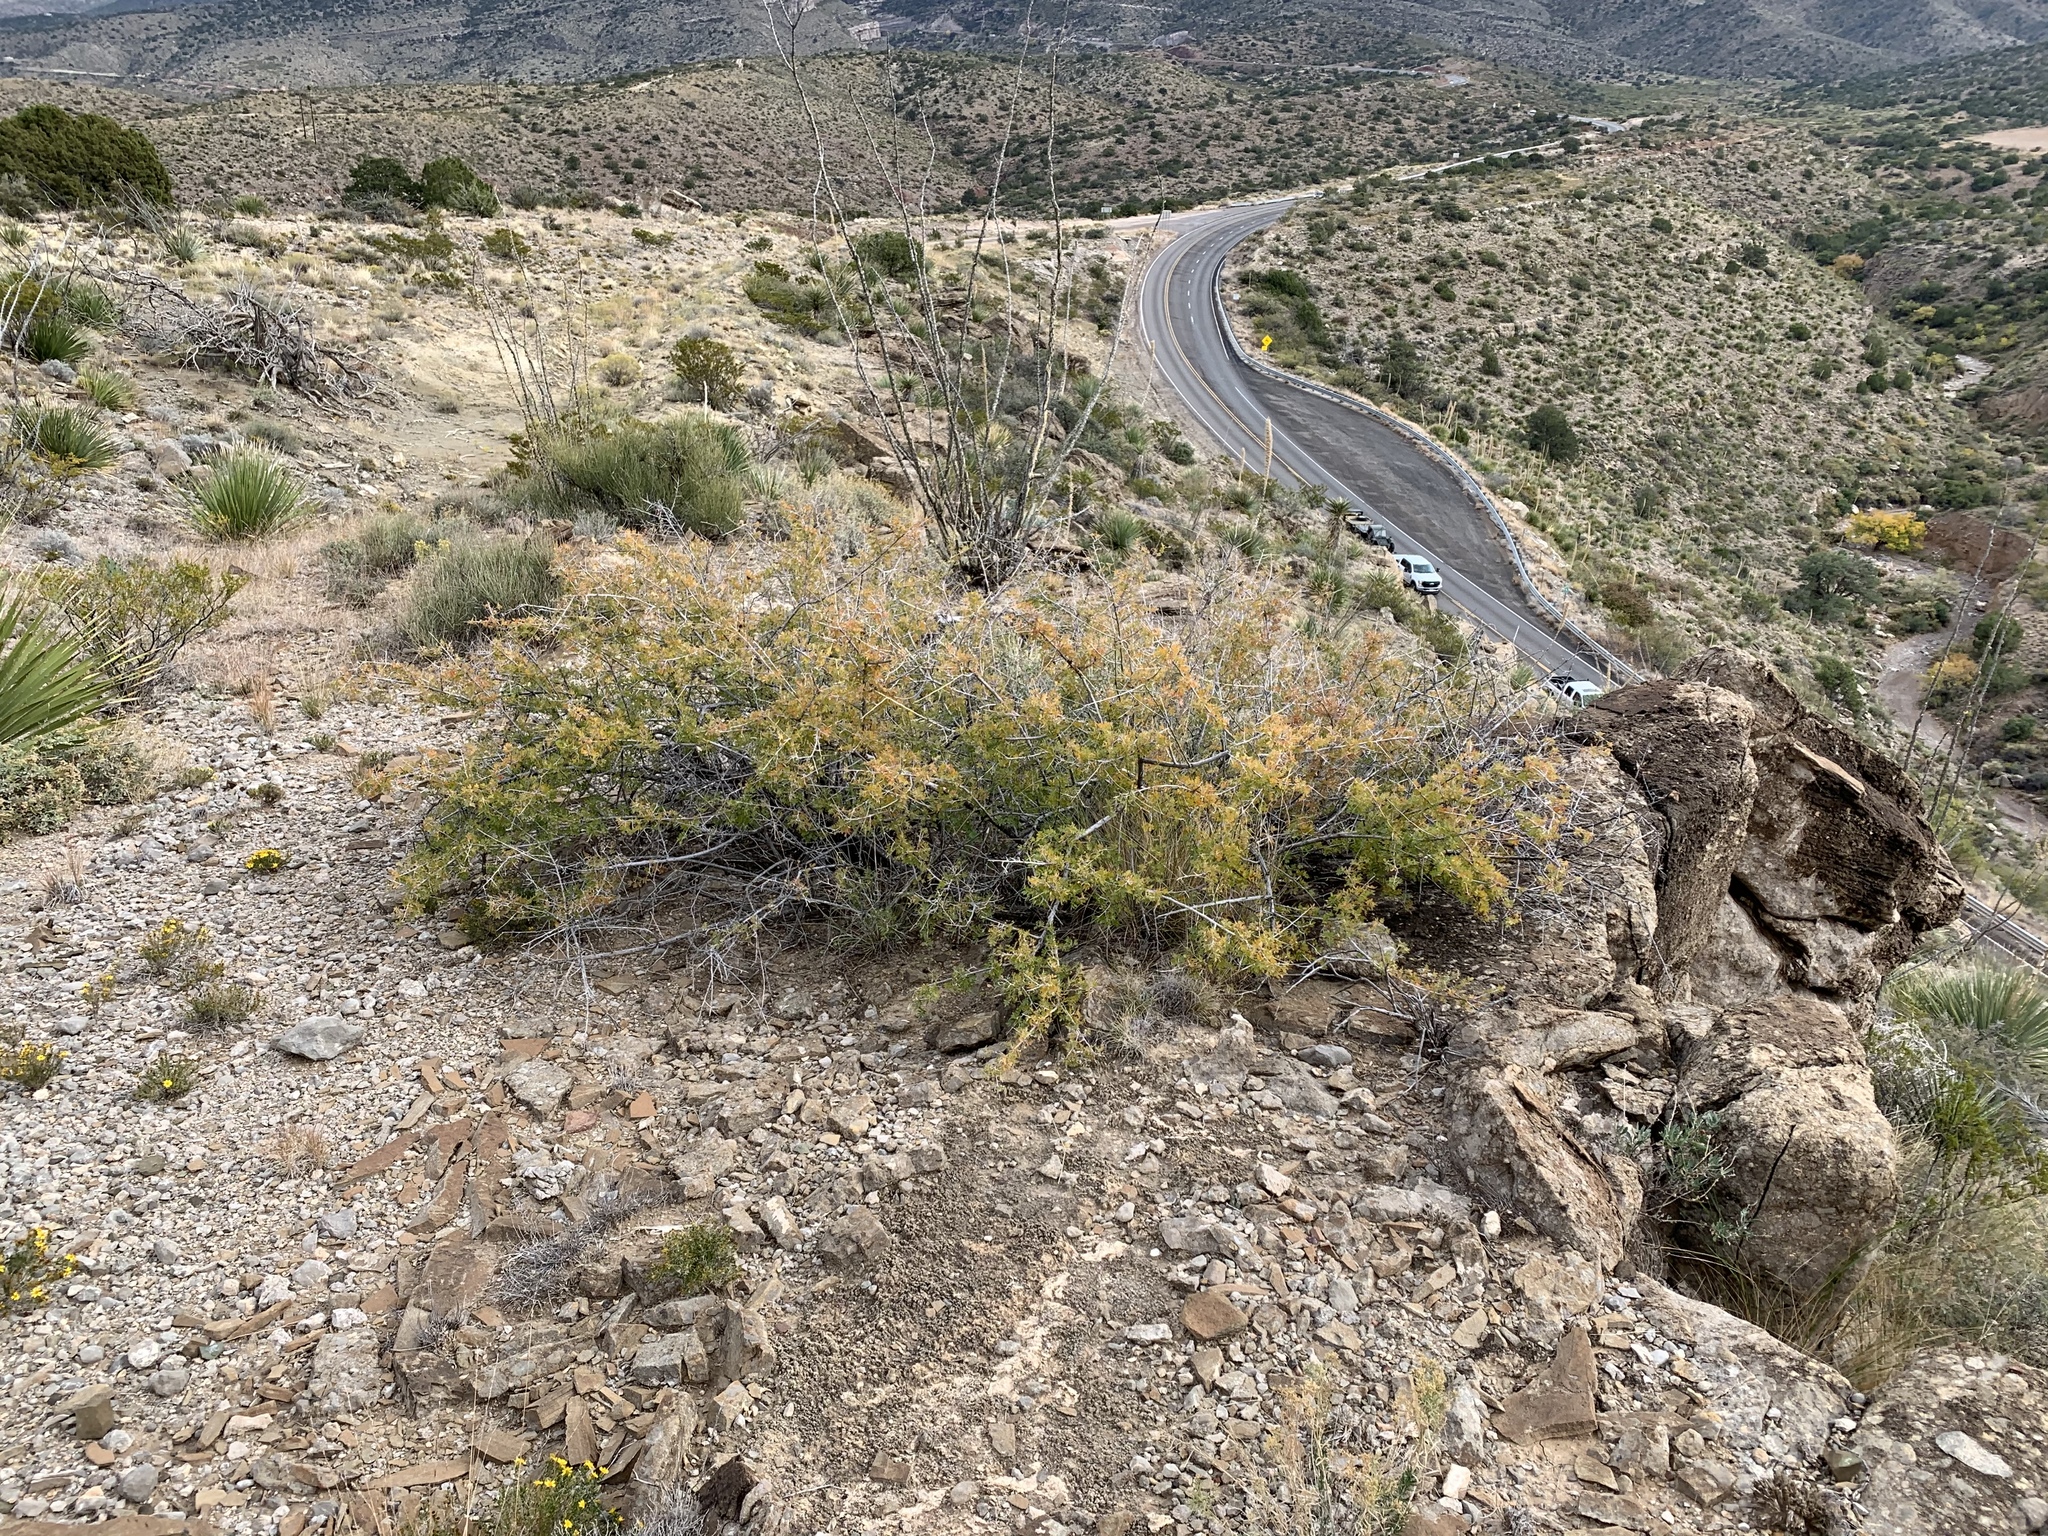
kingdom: Plantae
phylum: Tracheophyta
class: Magnoliopsida
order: Sapindales
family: Anacardiaceae
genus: Rhus
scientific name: Rhus microphylla
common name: Desert sumac
